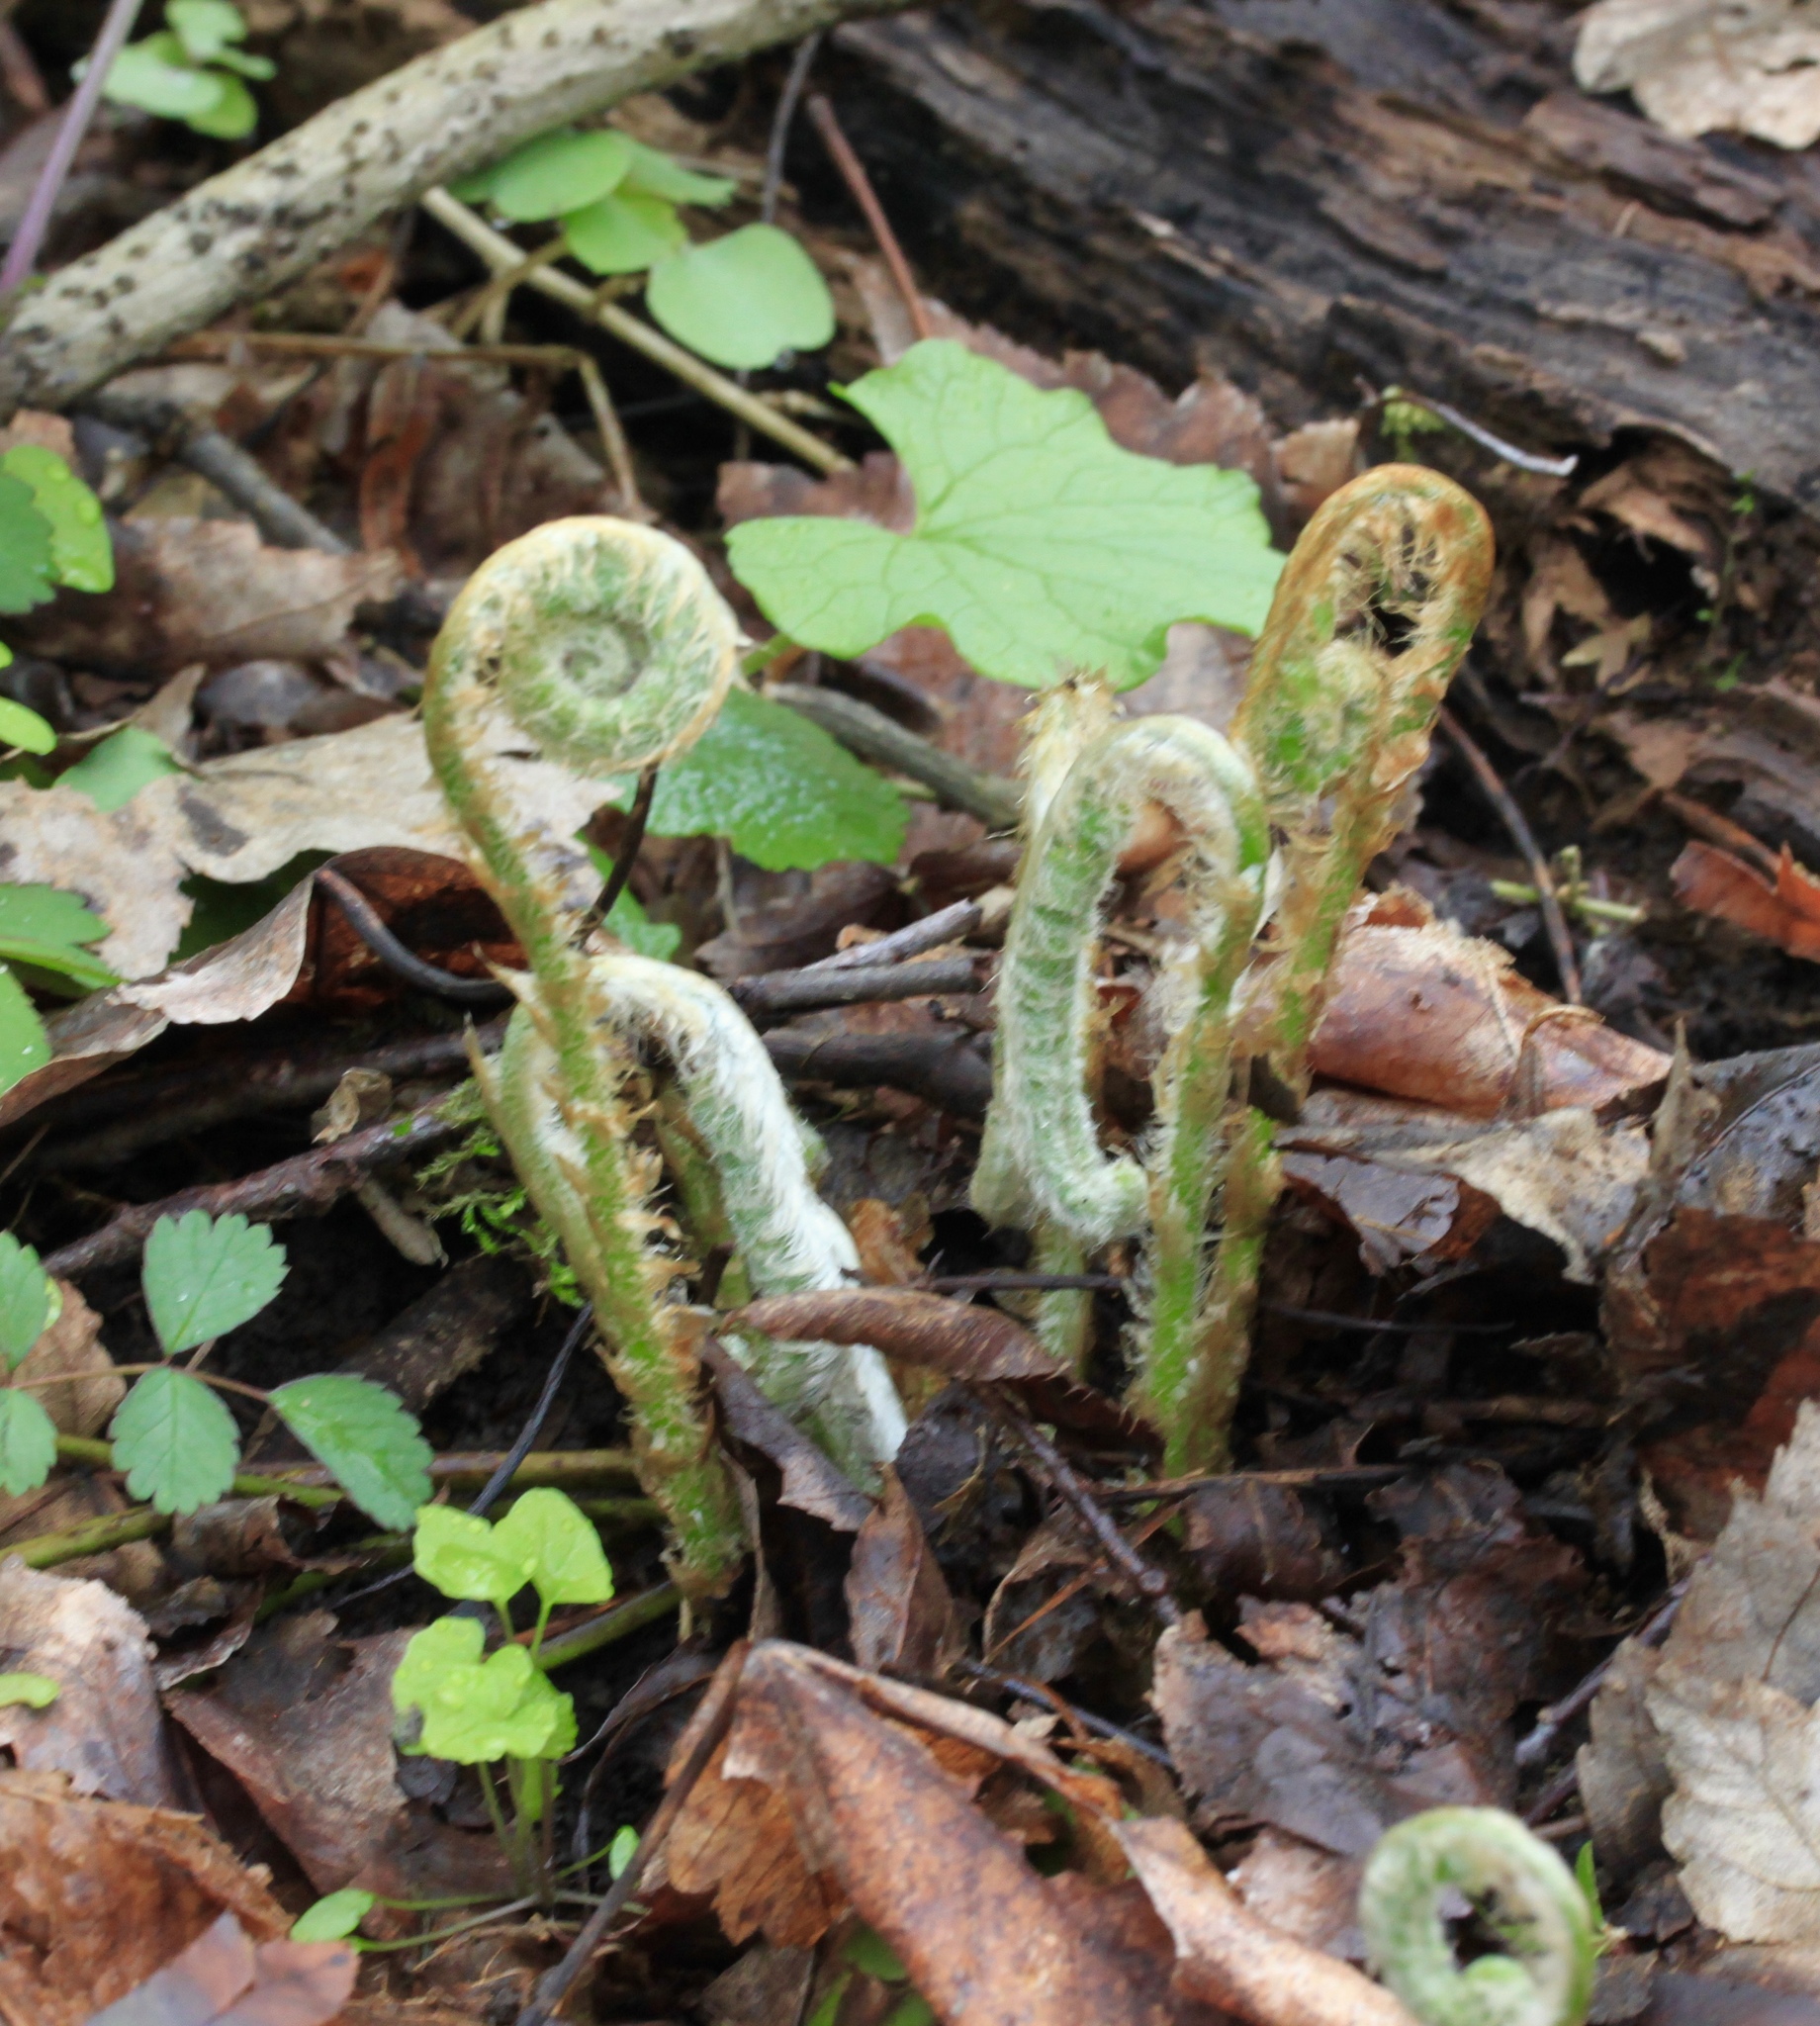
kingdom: Plantae
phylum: Tracheophyta
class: Polypodiopsida
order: Polypodiales
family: Dryopteridaceae
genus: Polystichum
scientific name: Polystichum acrostichoides
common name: Christmas fern
